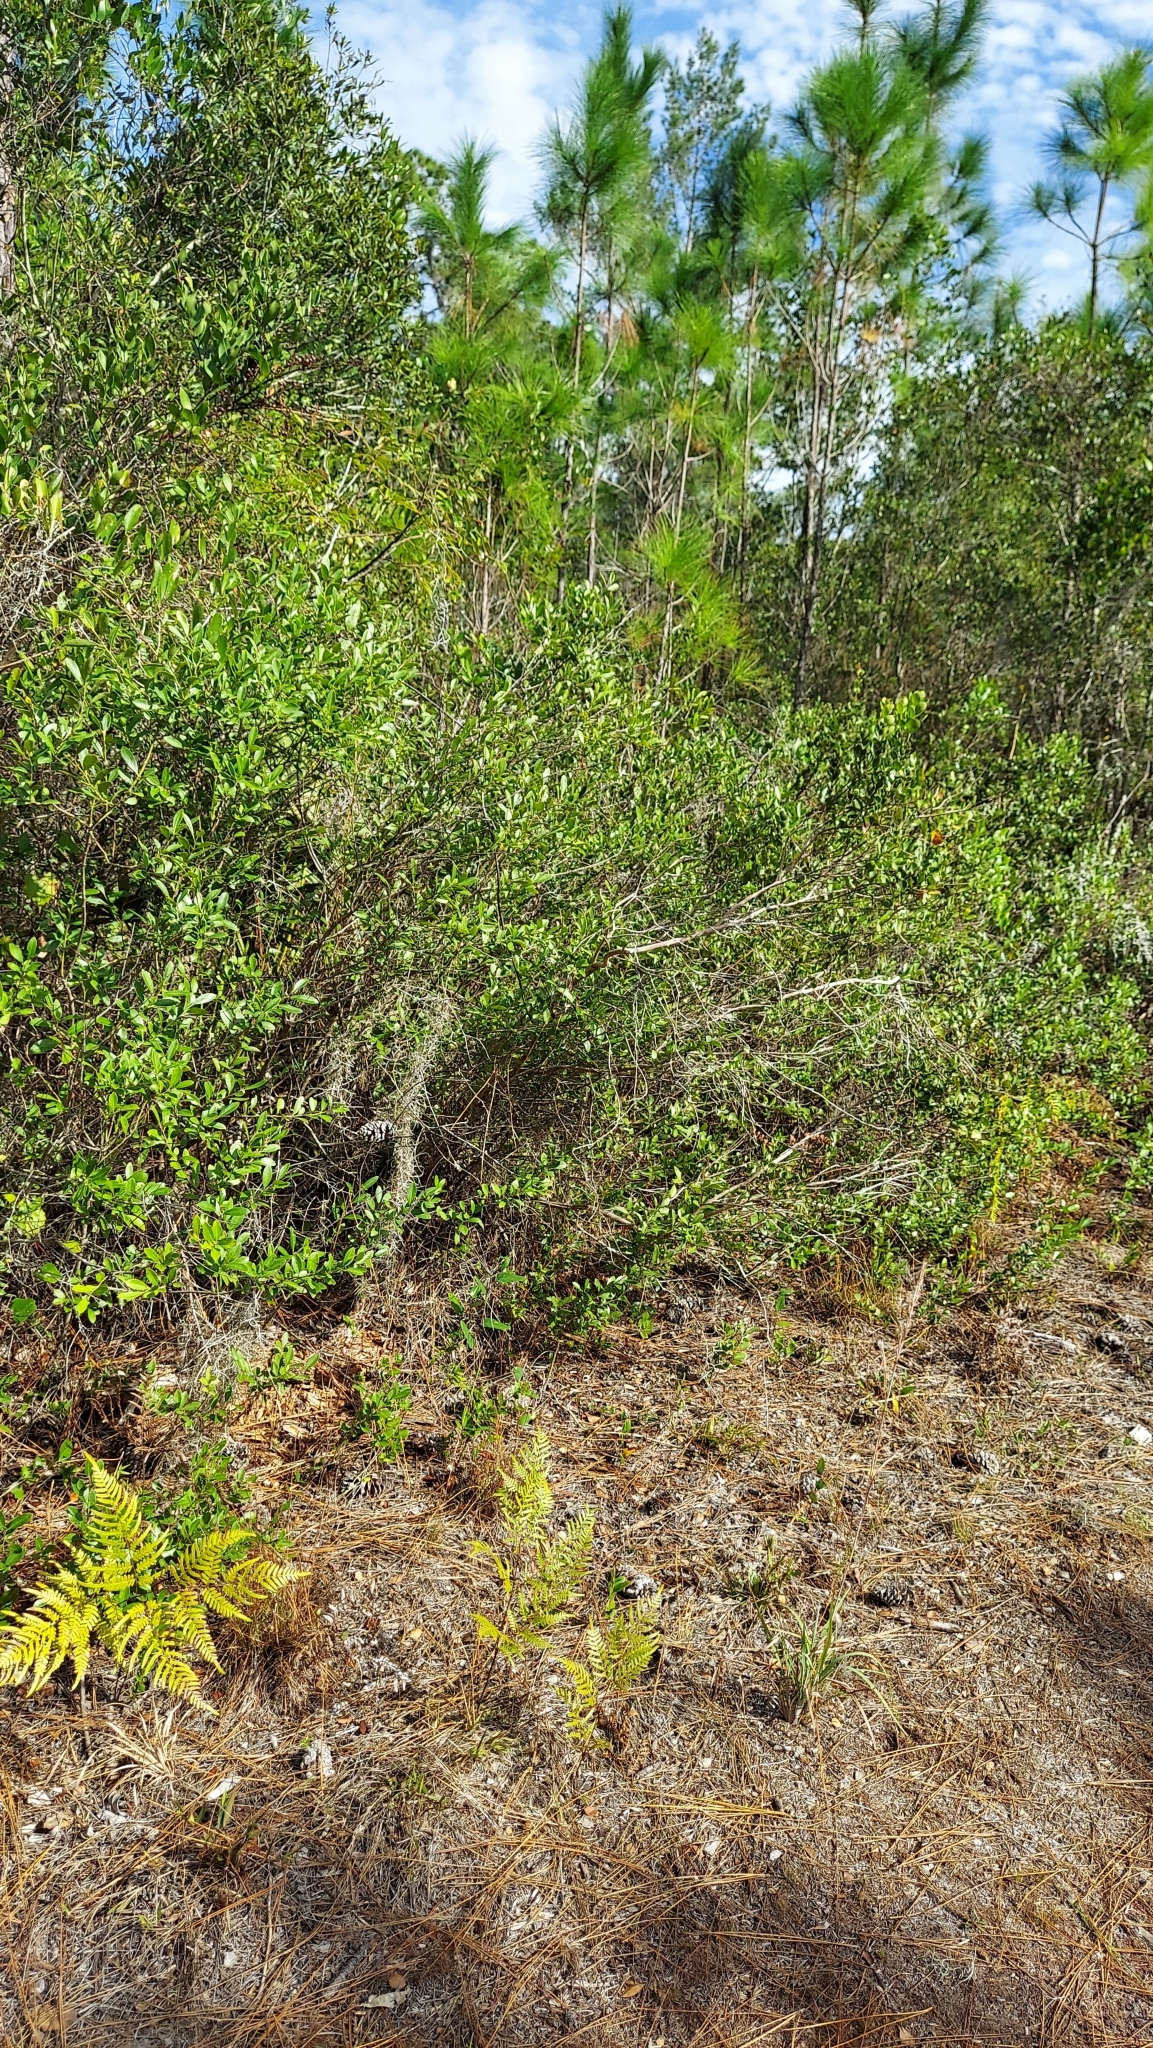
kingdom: Plantae
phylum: Tracheophyta
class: Magnoliopsida
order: Aquifoliales
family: Aquifoliaceae
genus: Ilex
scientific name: Ilex glabra
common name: Bitter gallberry
